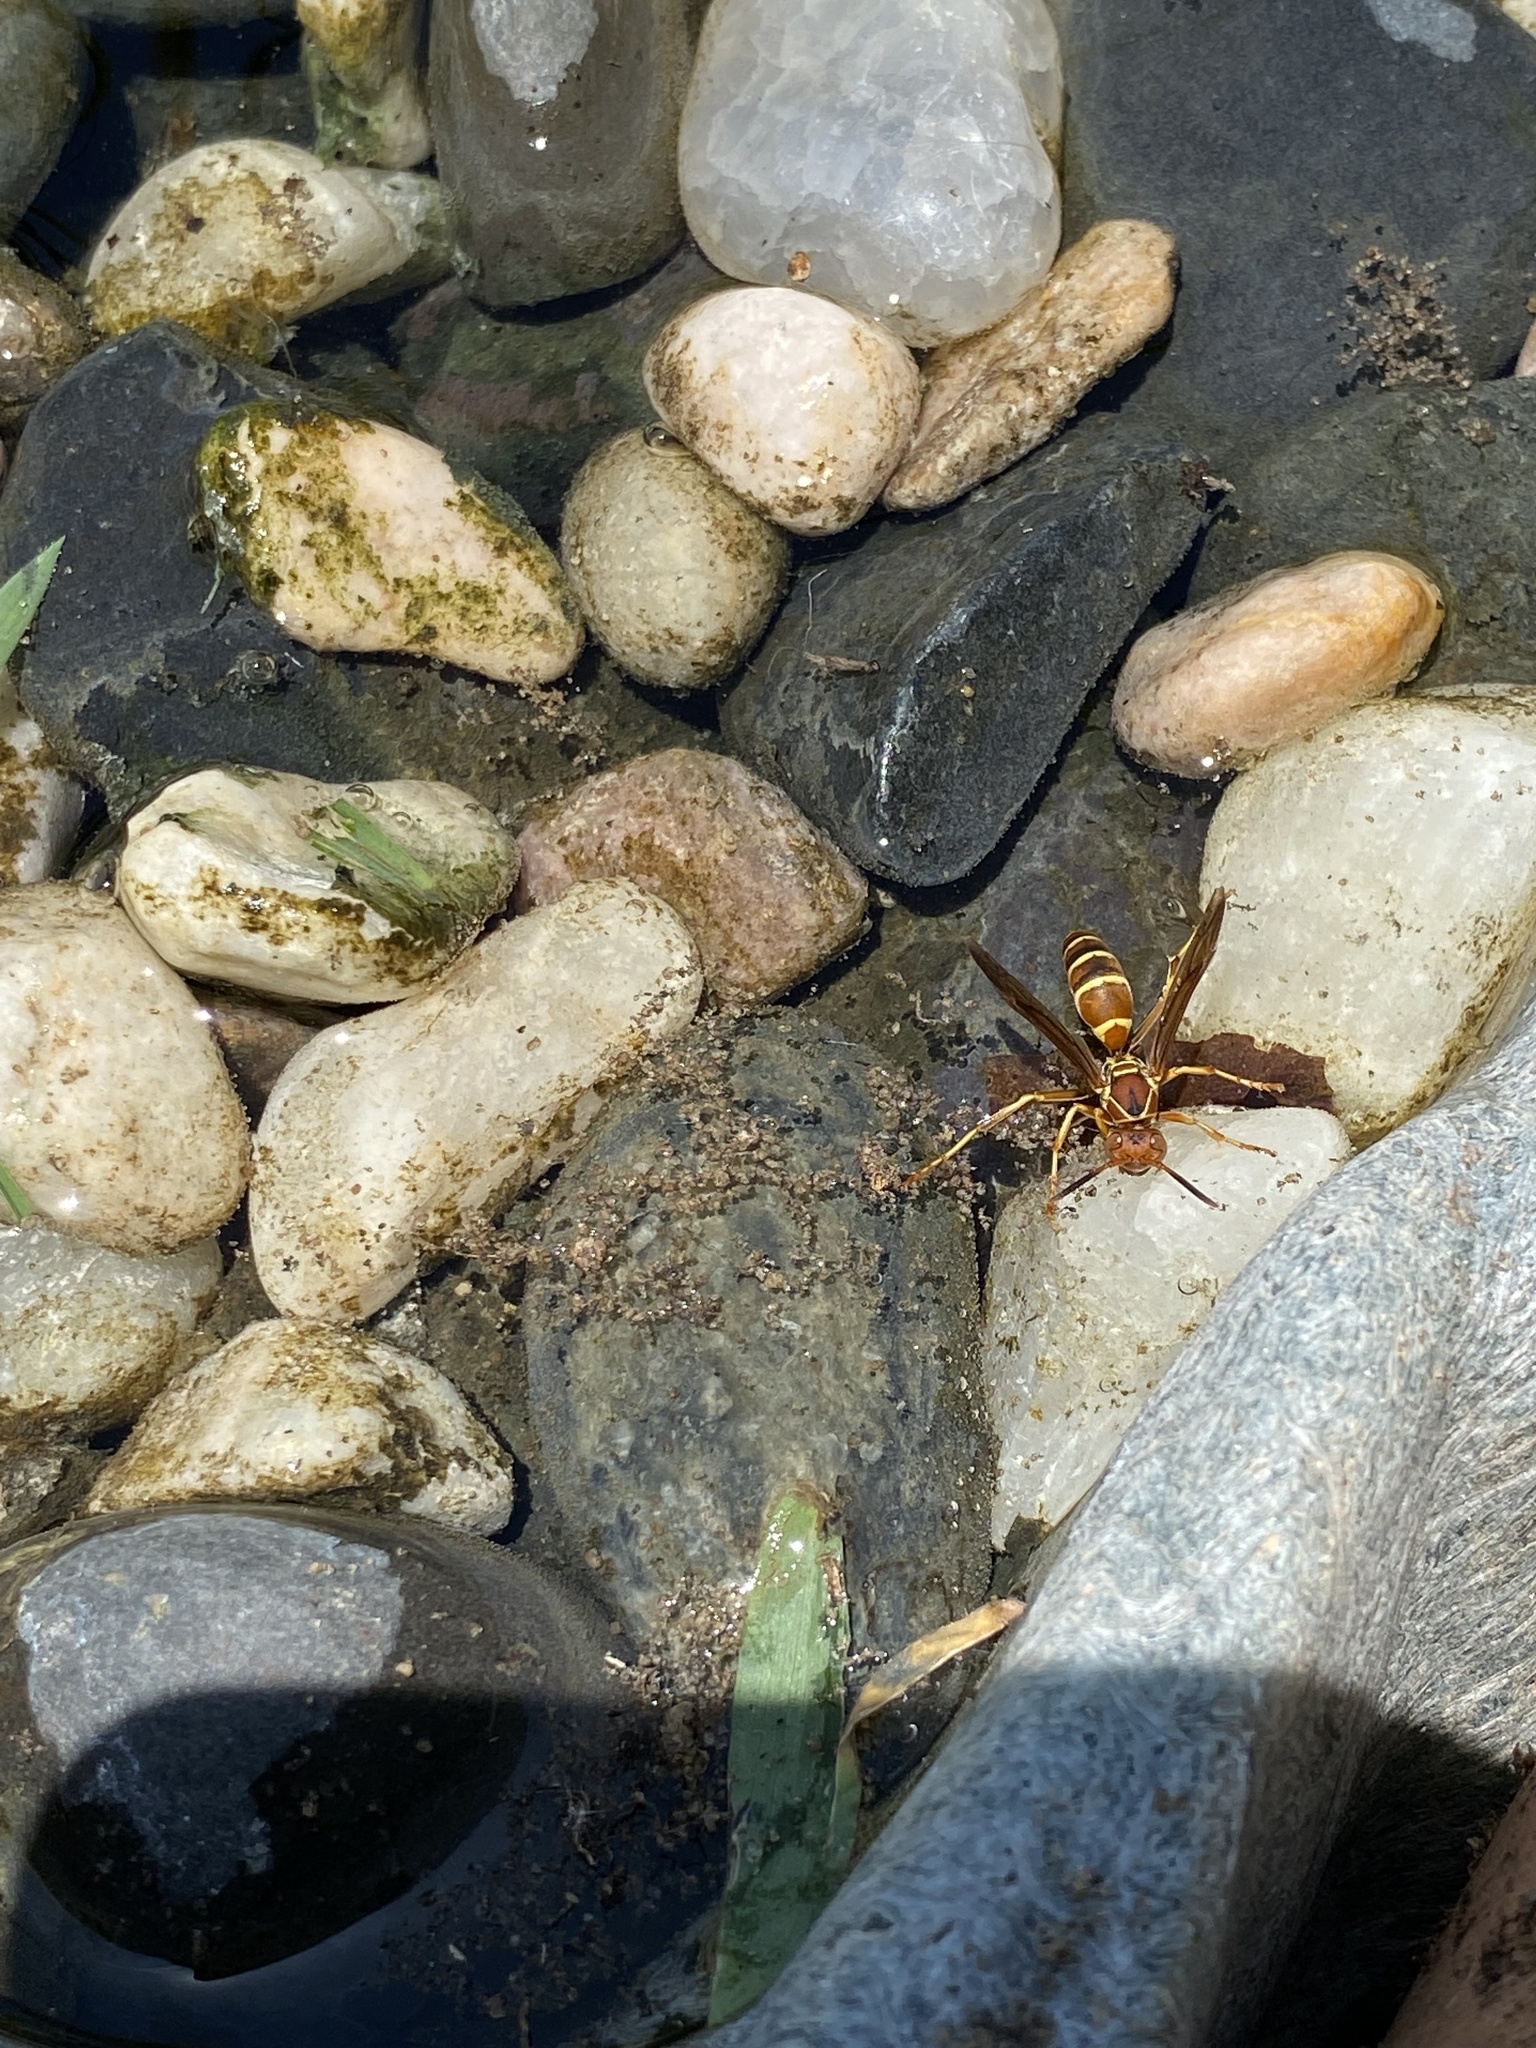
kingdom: Animalia
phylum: Arthropoda
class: Insecta
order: Hymenoptera
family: Eumenidae
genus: Polistes
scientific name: Polistes dorsalis
